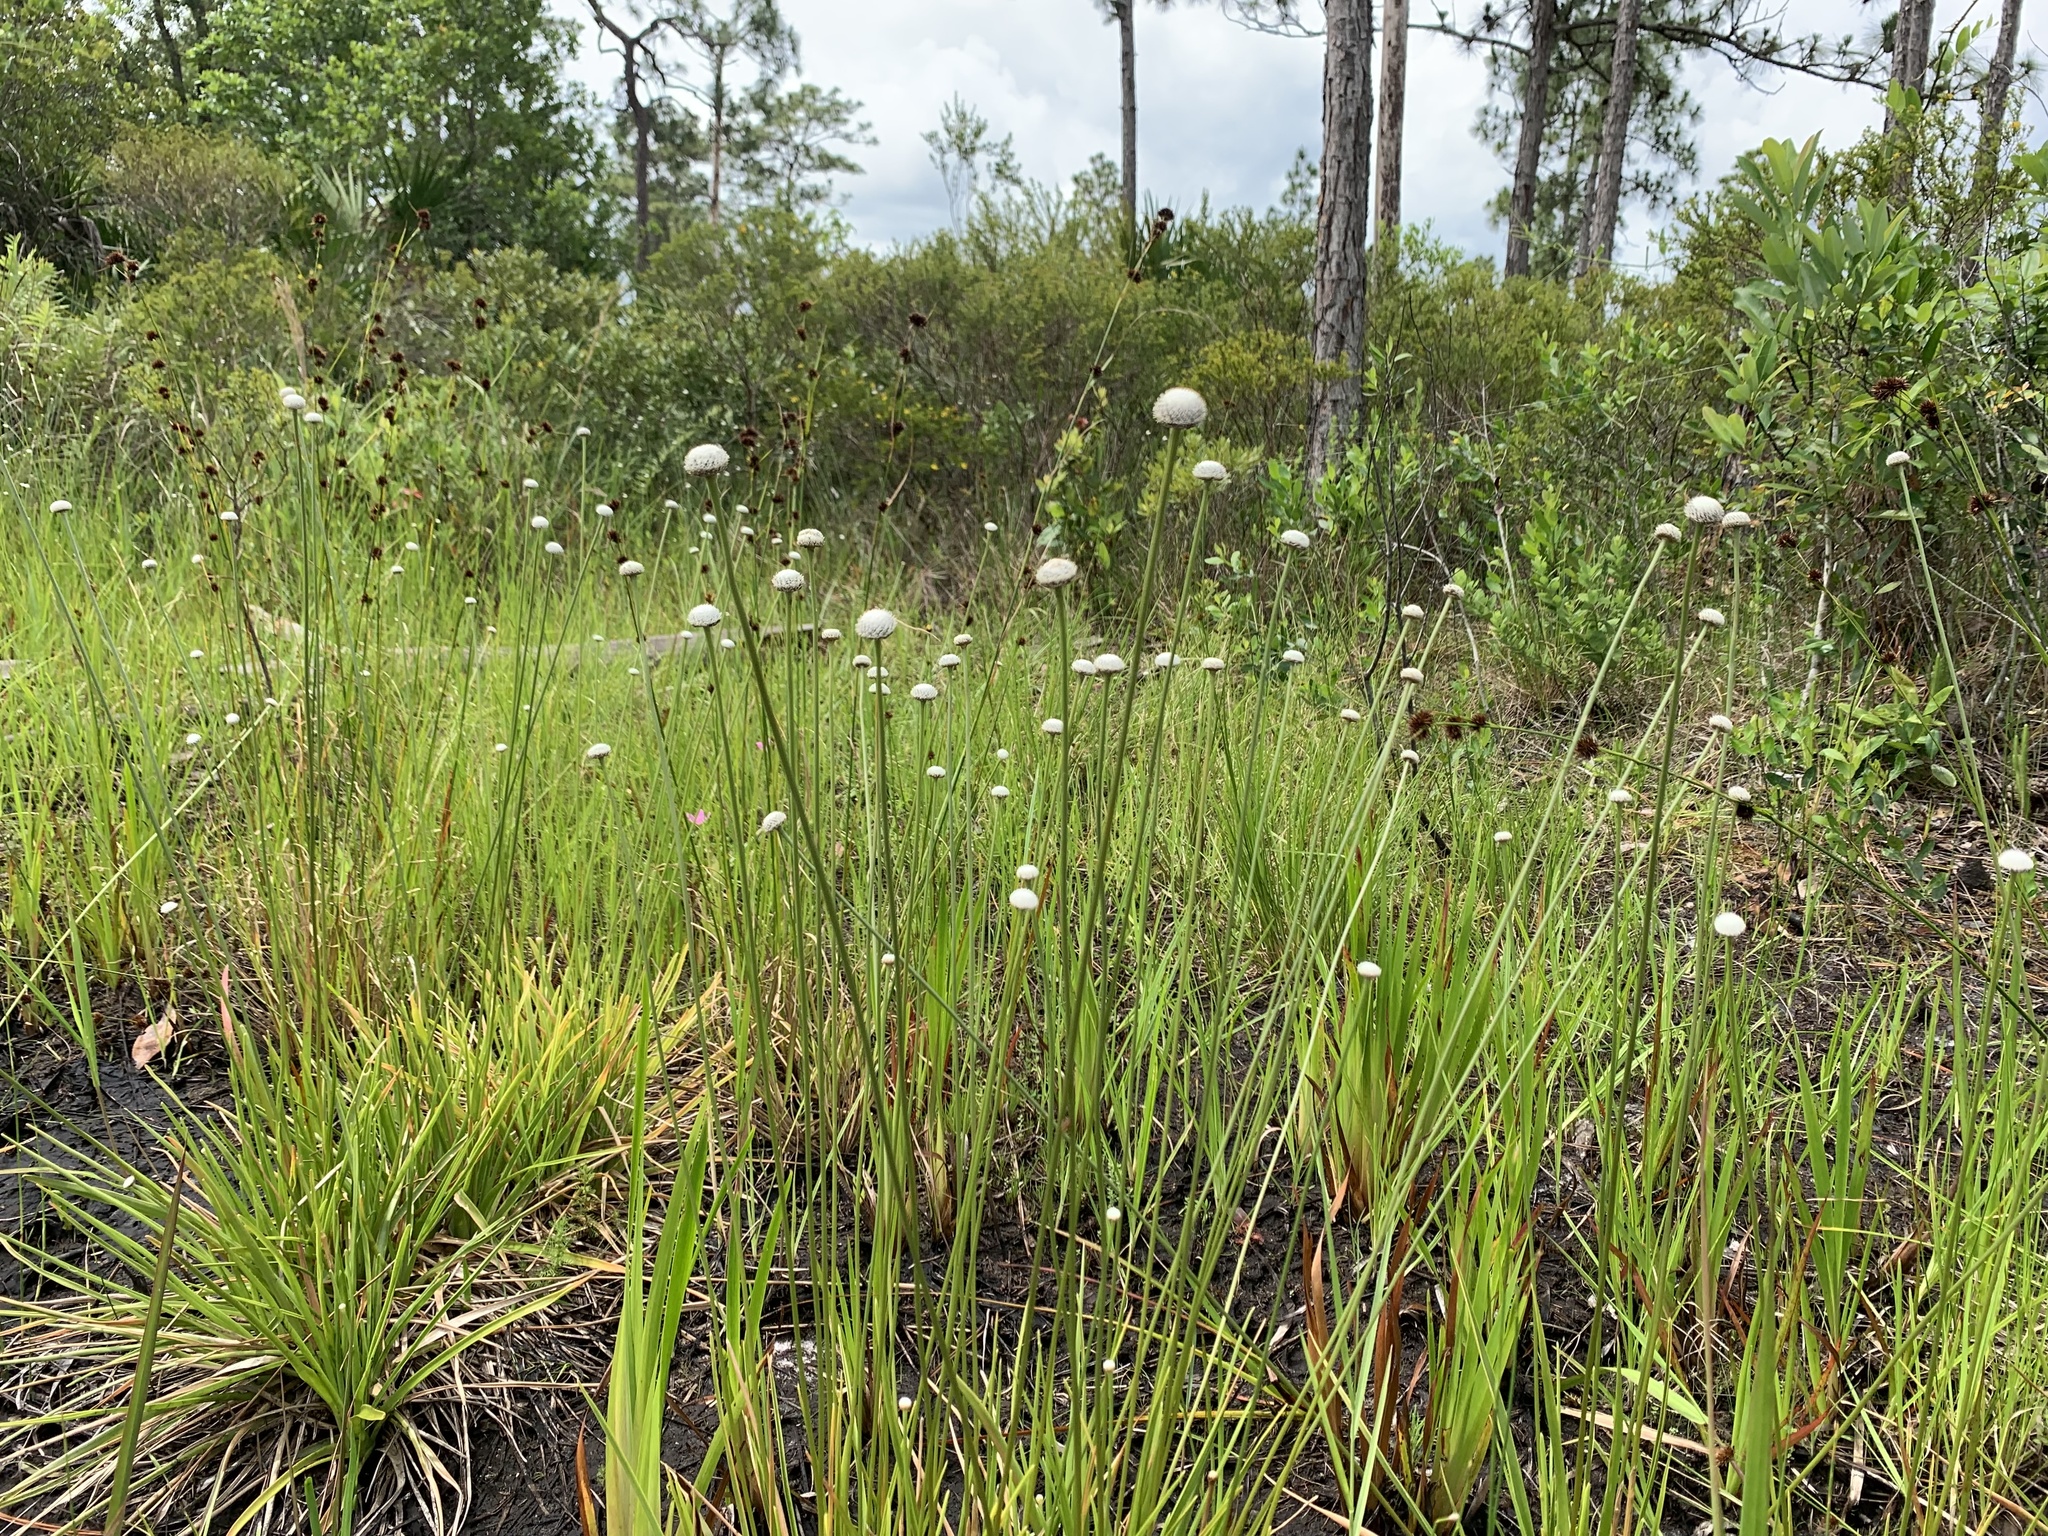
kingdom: Plantae
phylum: Tracheophyta
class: Liliopsida
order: Poales
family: Eriocaulaceae
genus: Eriocaulon
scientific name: Eriocaulon decangulare
